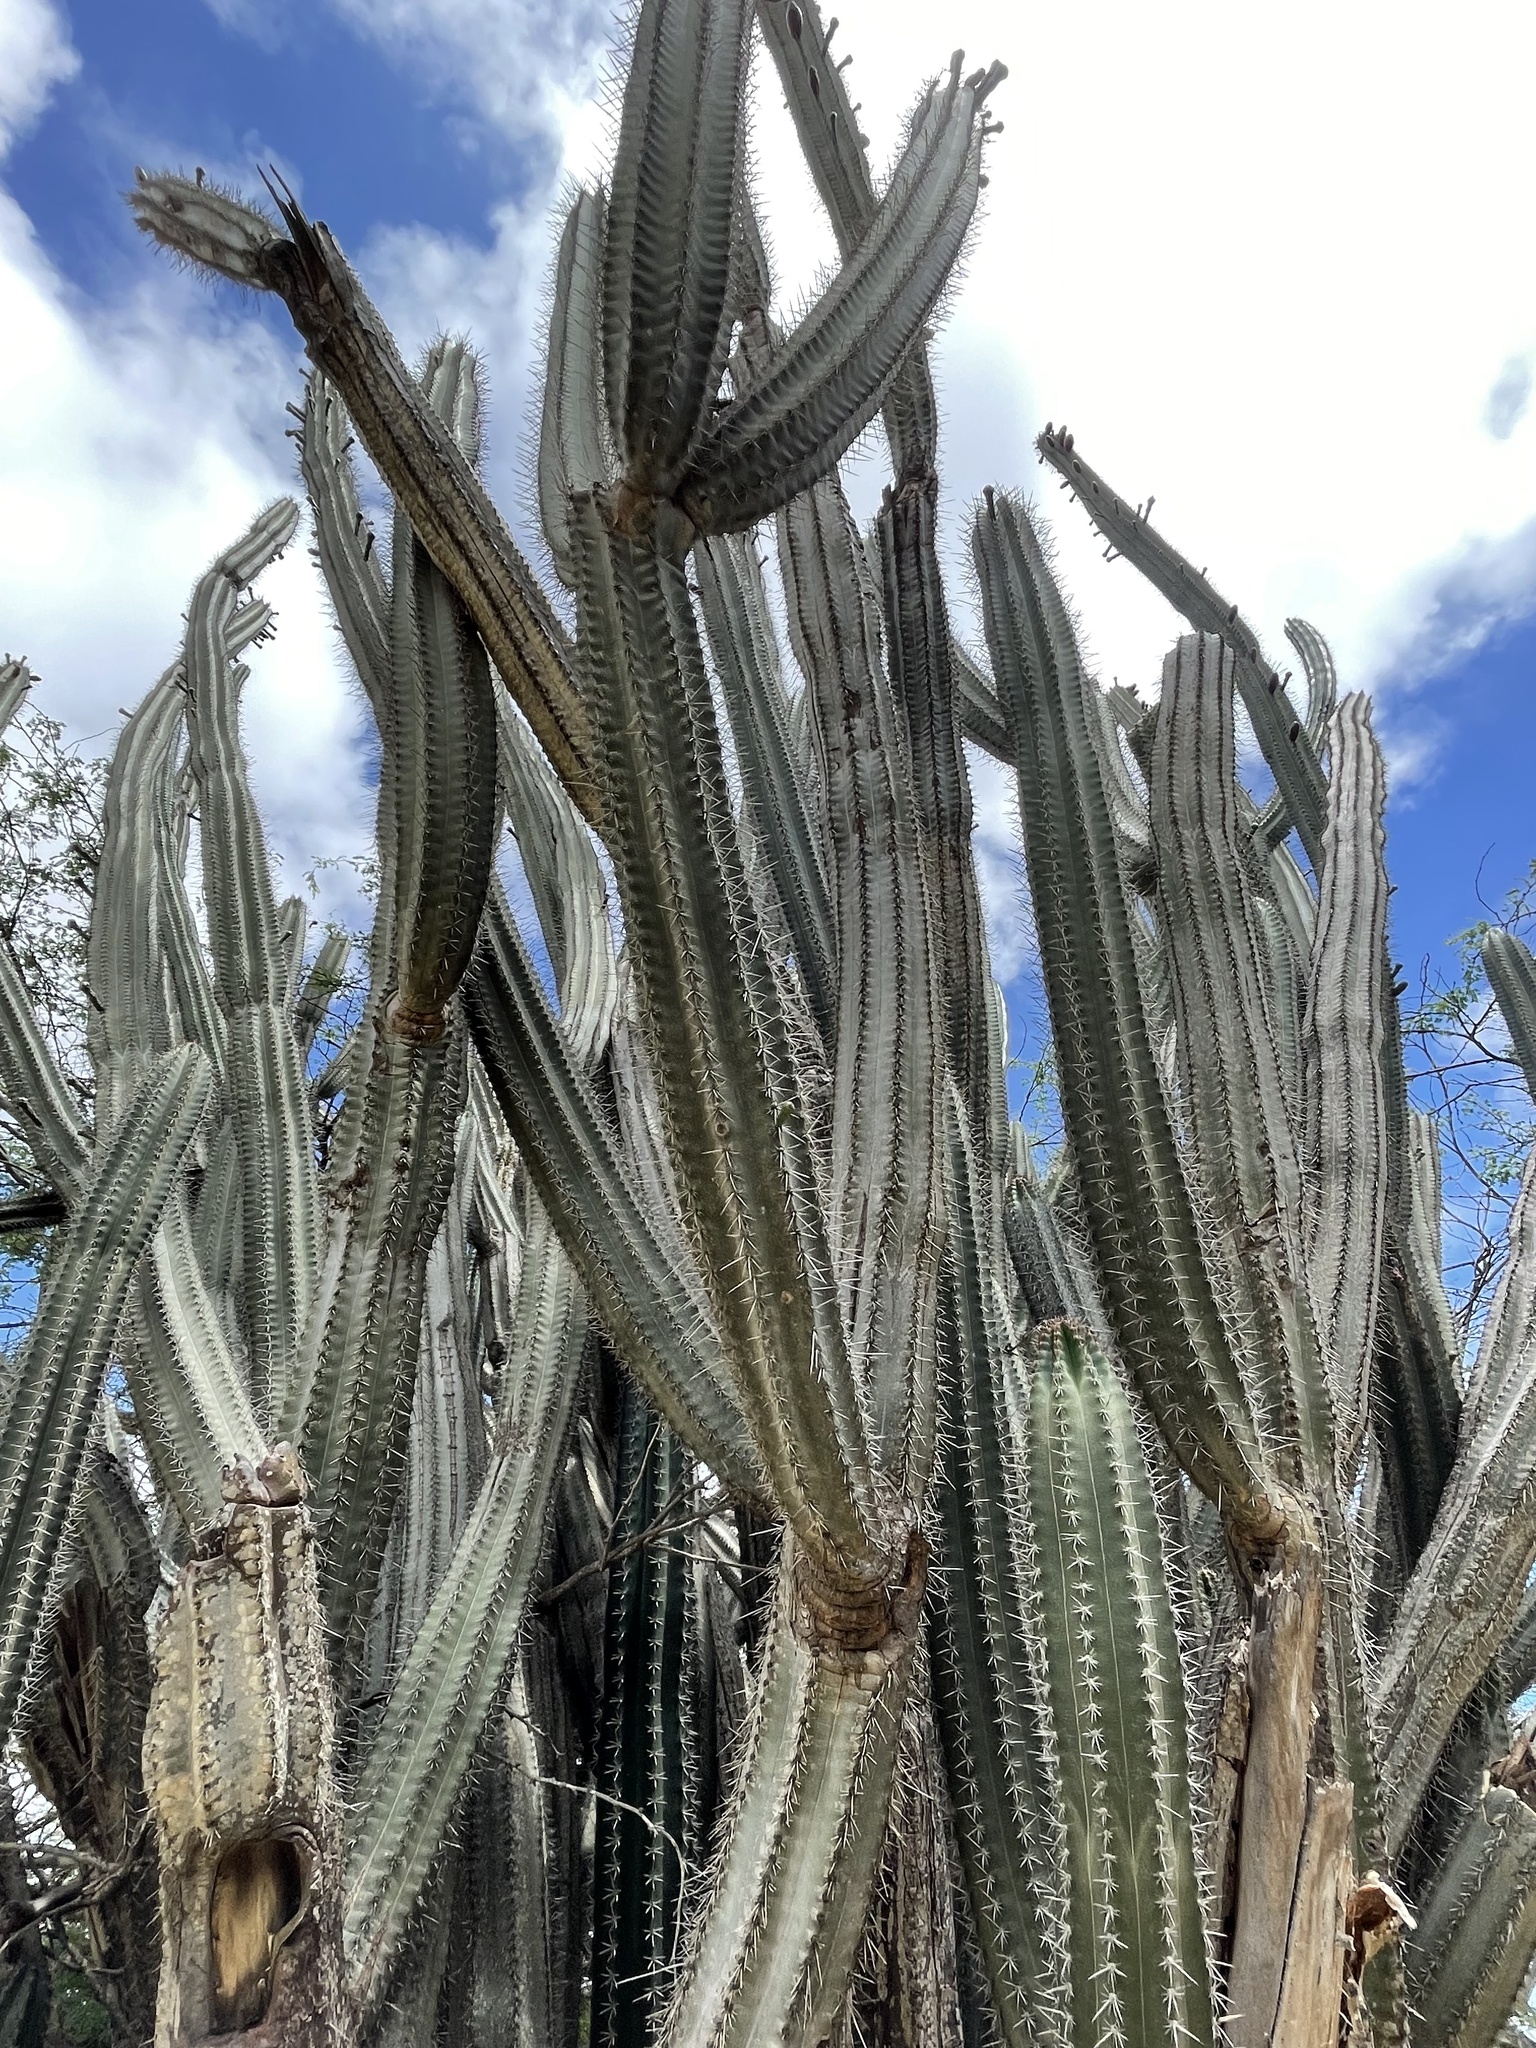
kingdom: Plantae
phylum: Tracheophyta
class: Magnoliopsida
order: Caryophyllales
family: Cactaceae
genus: Cereus
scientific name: Cereus repandus
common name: Sweetpotato cactus
